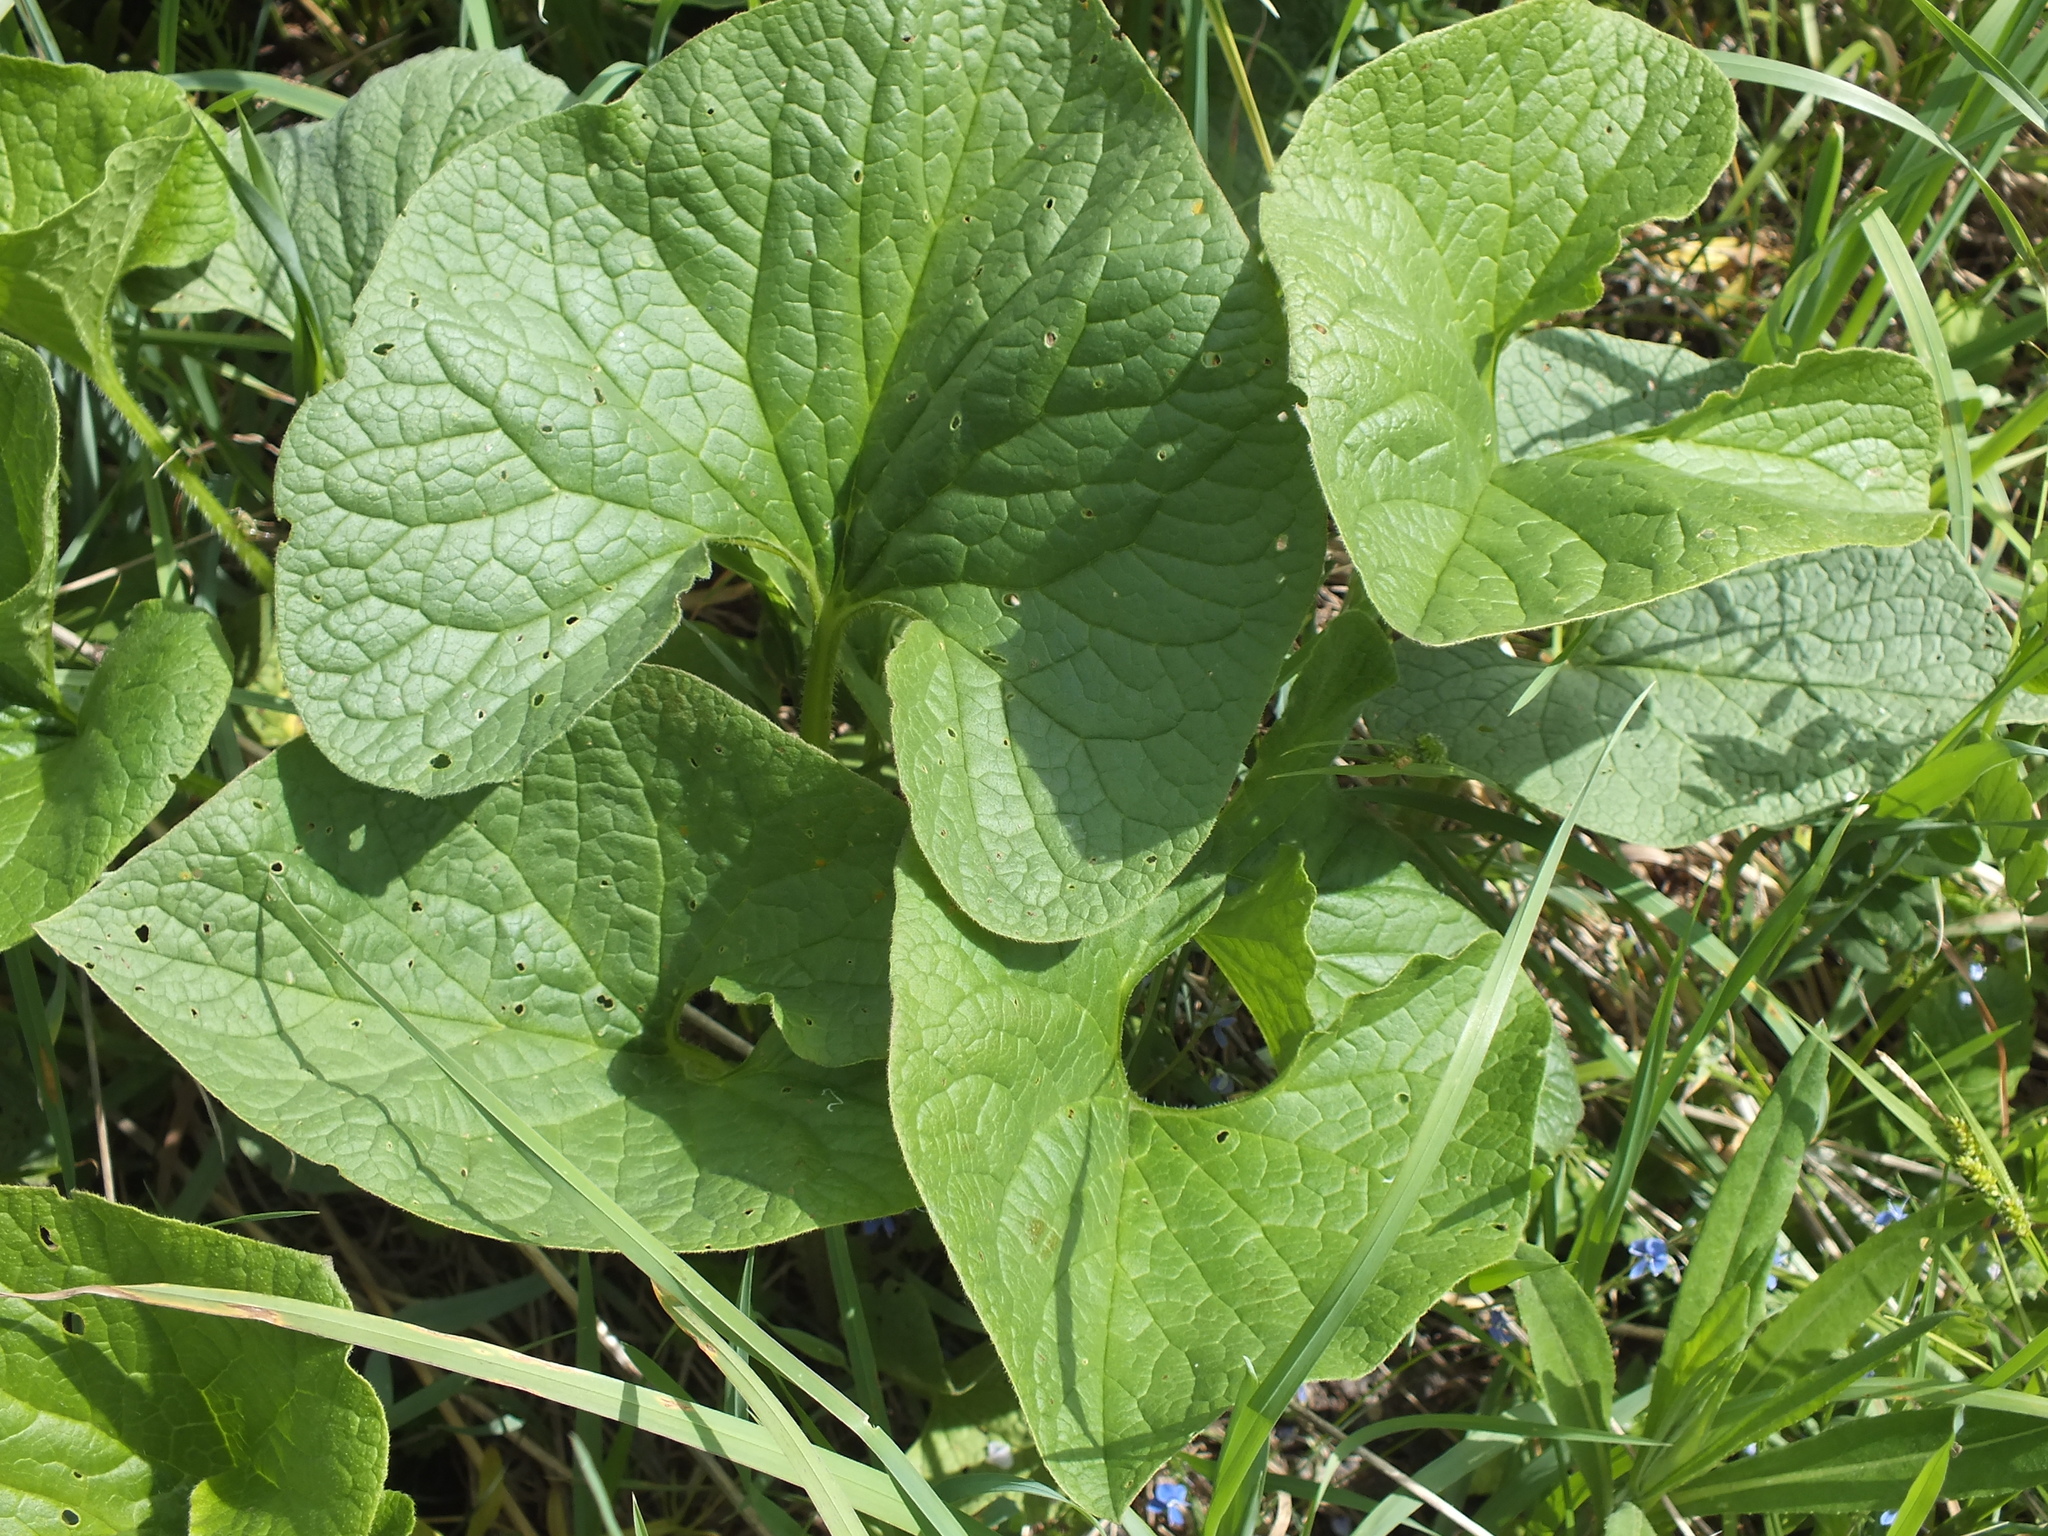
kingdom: Plantae
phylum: Tracheophyta
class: Magnoliopsida
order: Boraginales
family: Boraginaceae
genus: Brunnera
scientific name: Brunnera sibirica
